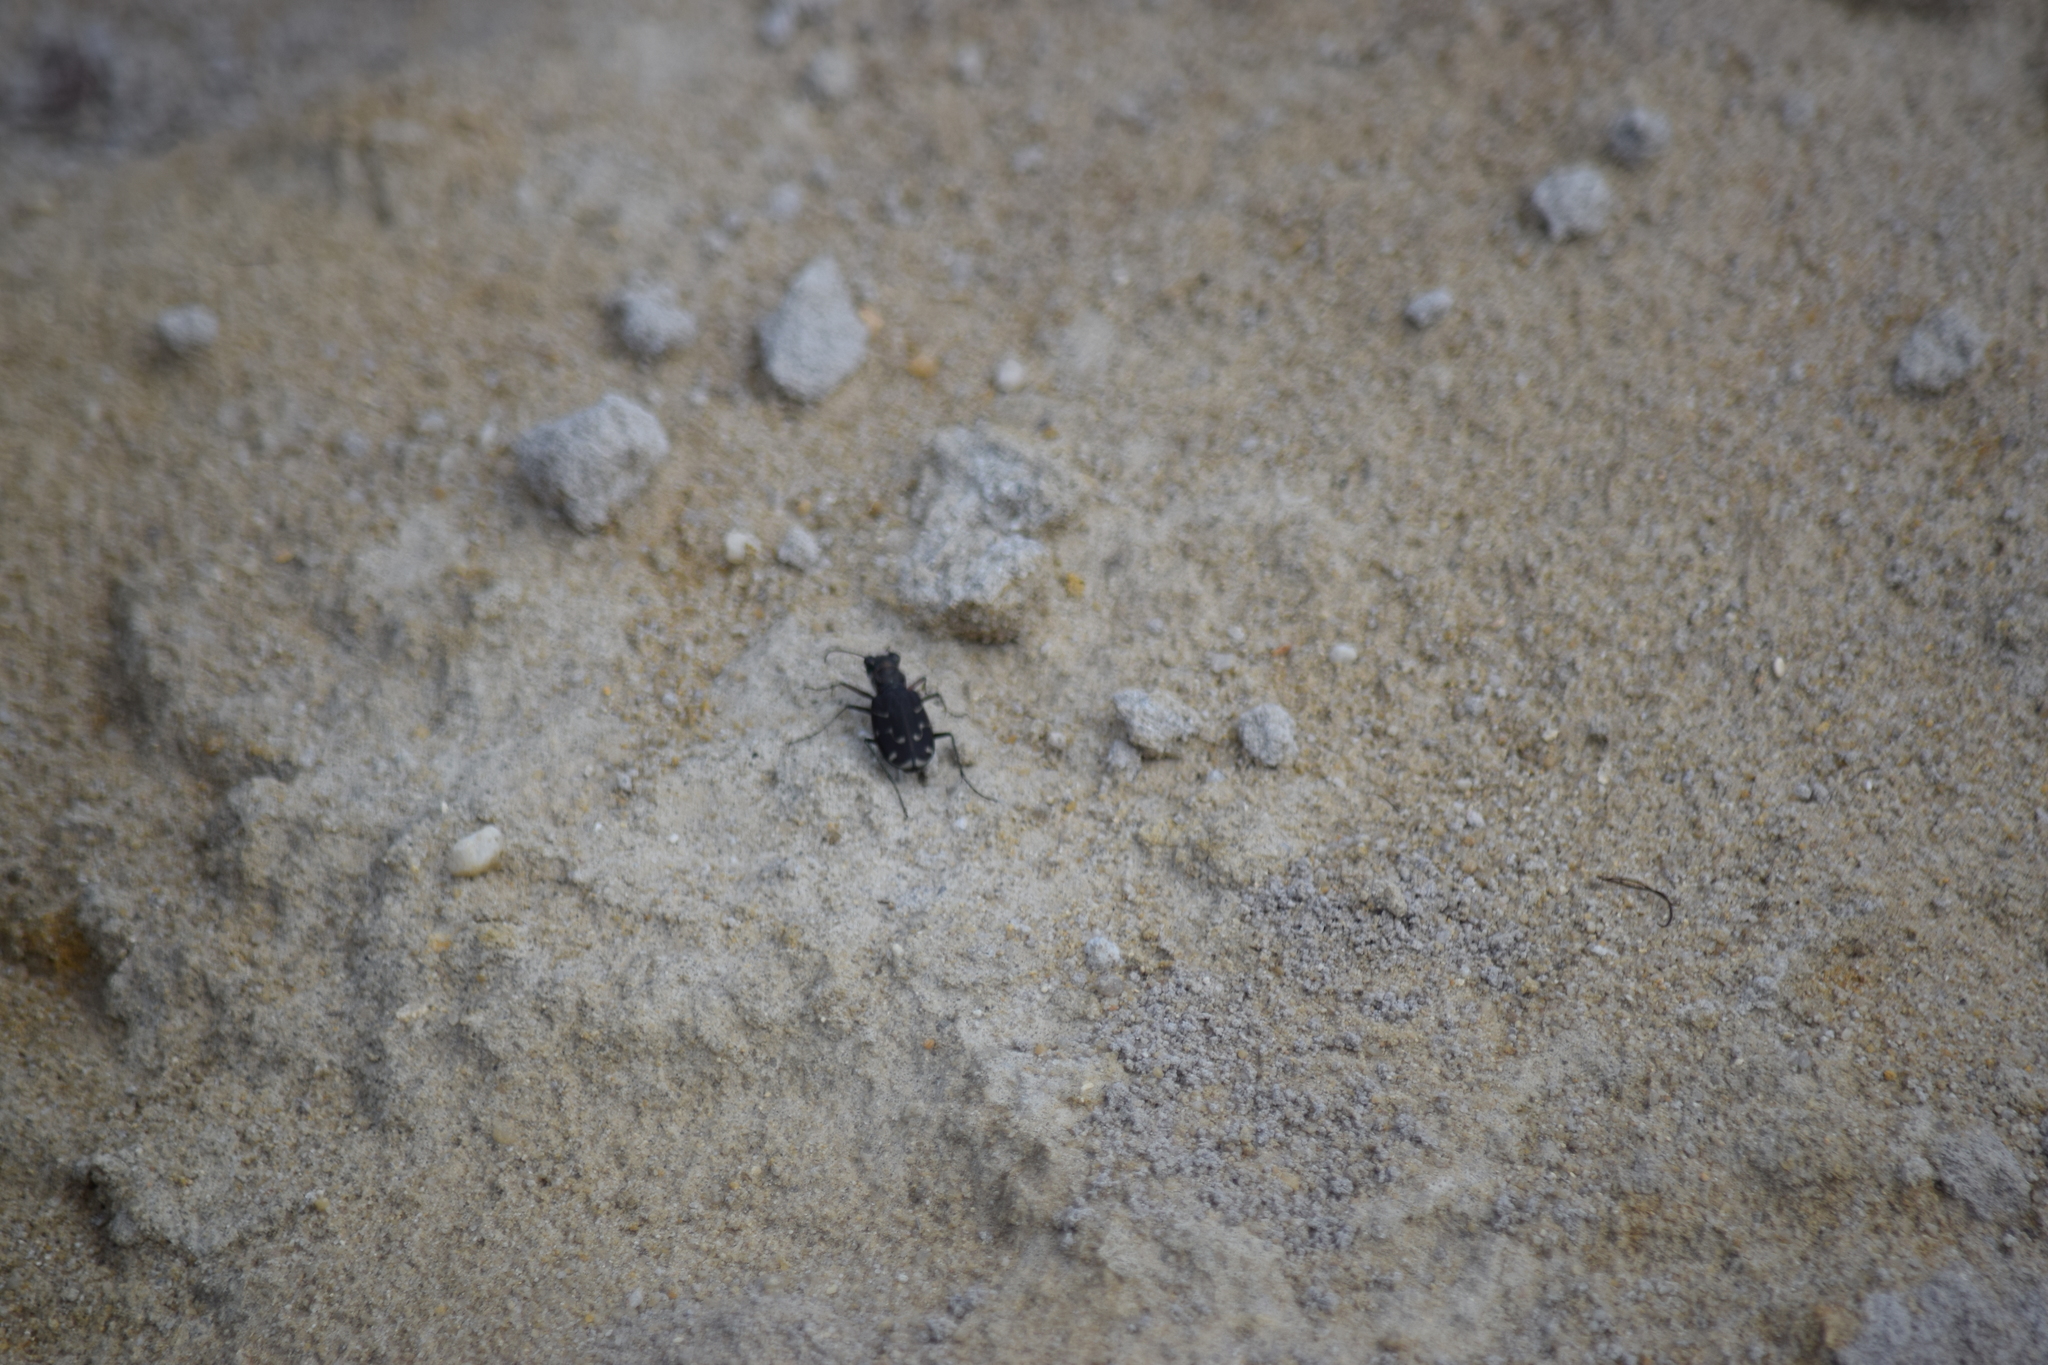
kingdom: Animalia
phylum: Arthropoda
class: Insecta
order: Coleoptera
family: Carabidae
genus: Cicindela
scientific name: Cicindela tranquebarica
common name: Oblique-lined tiger beetle
